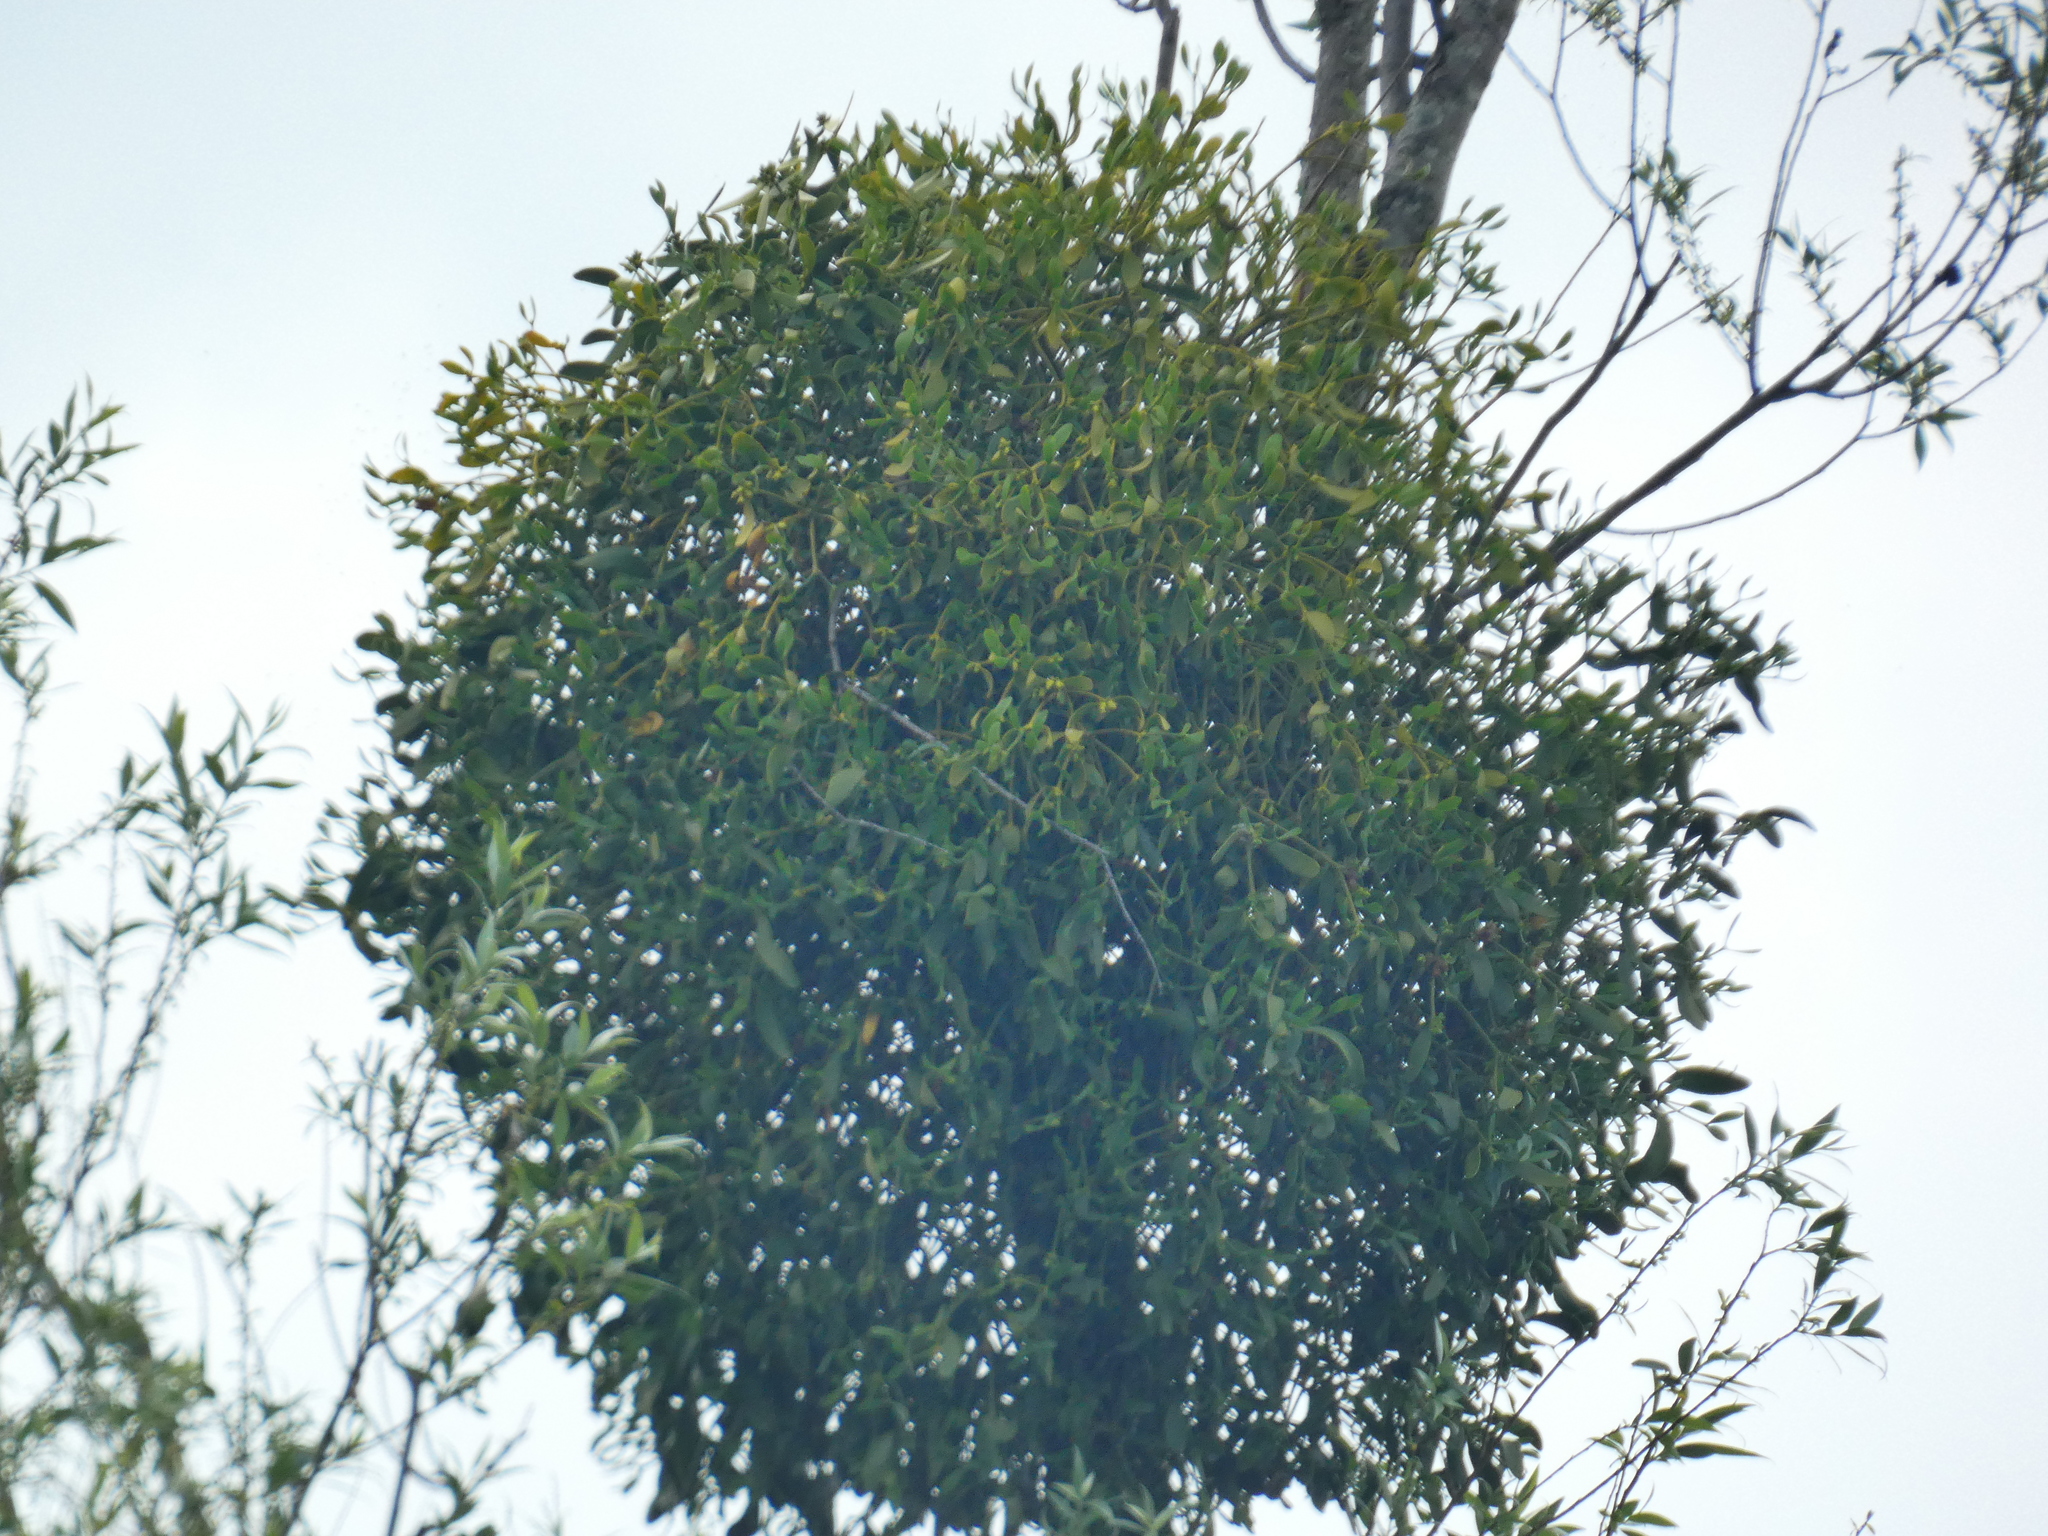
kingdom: Plantae
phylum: Tracheophyta
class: Magnoliopsida
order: Santalales
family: Viscaceae
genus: Viscum
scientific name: Viscum album
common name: Mistletoe
